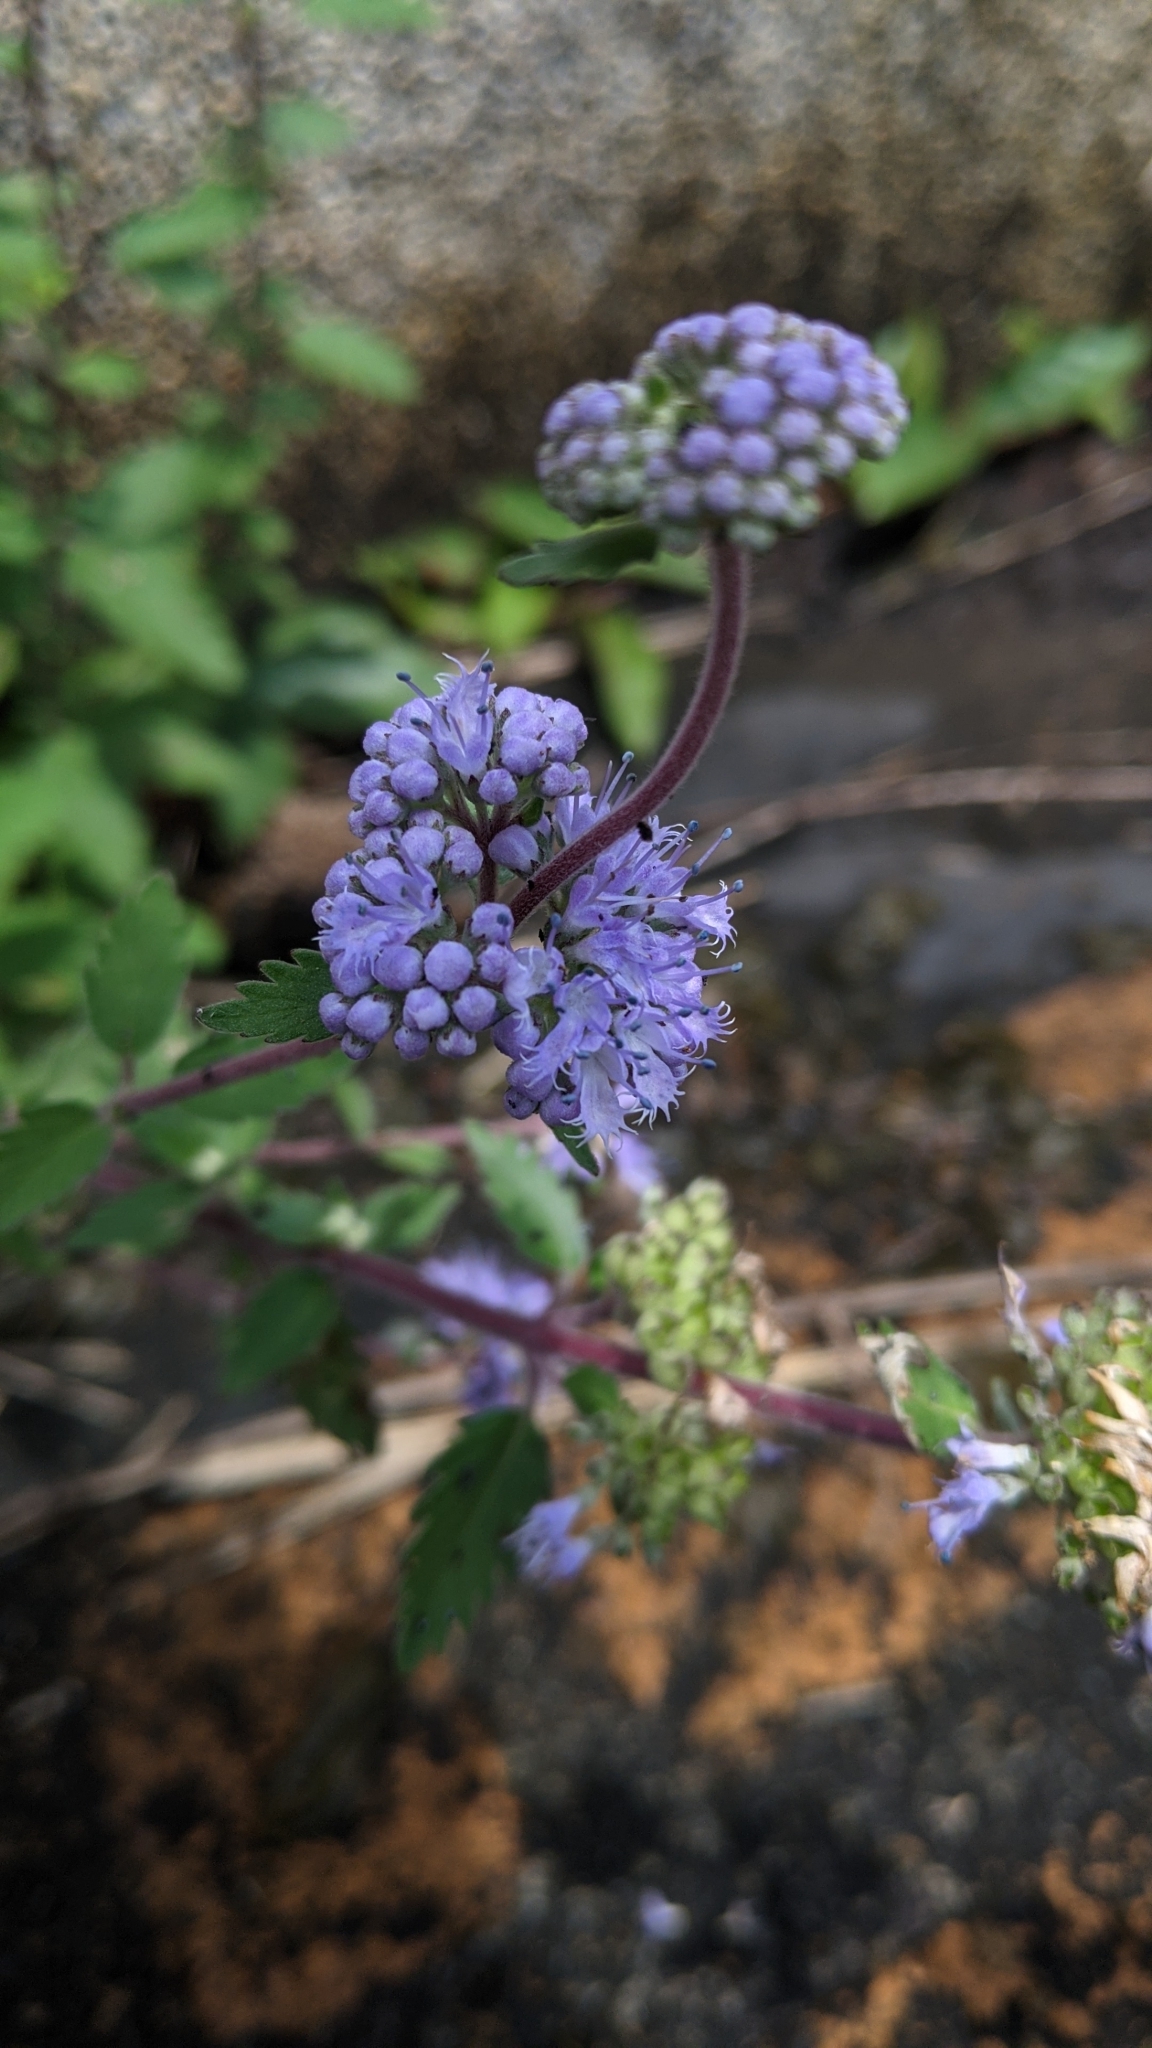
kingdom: Plantae
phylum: Tracheophyta
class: Magnoliopsida
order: Lamiales
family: Lamiaceae
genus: Caryopteris
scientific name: Caryopteris incana
